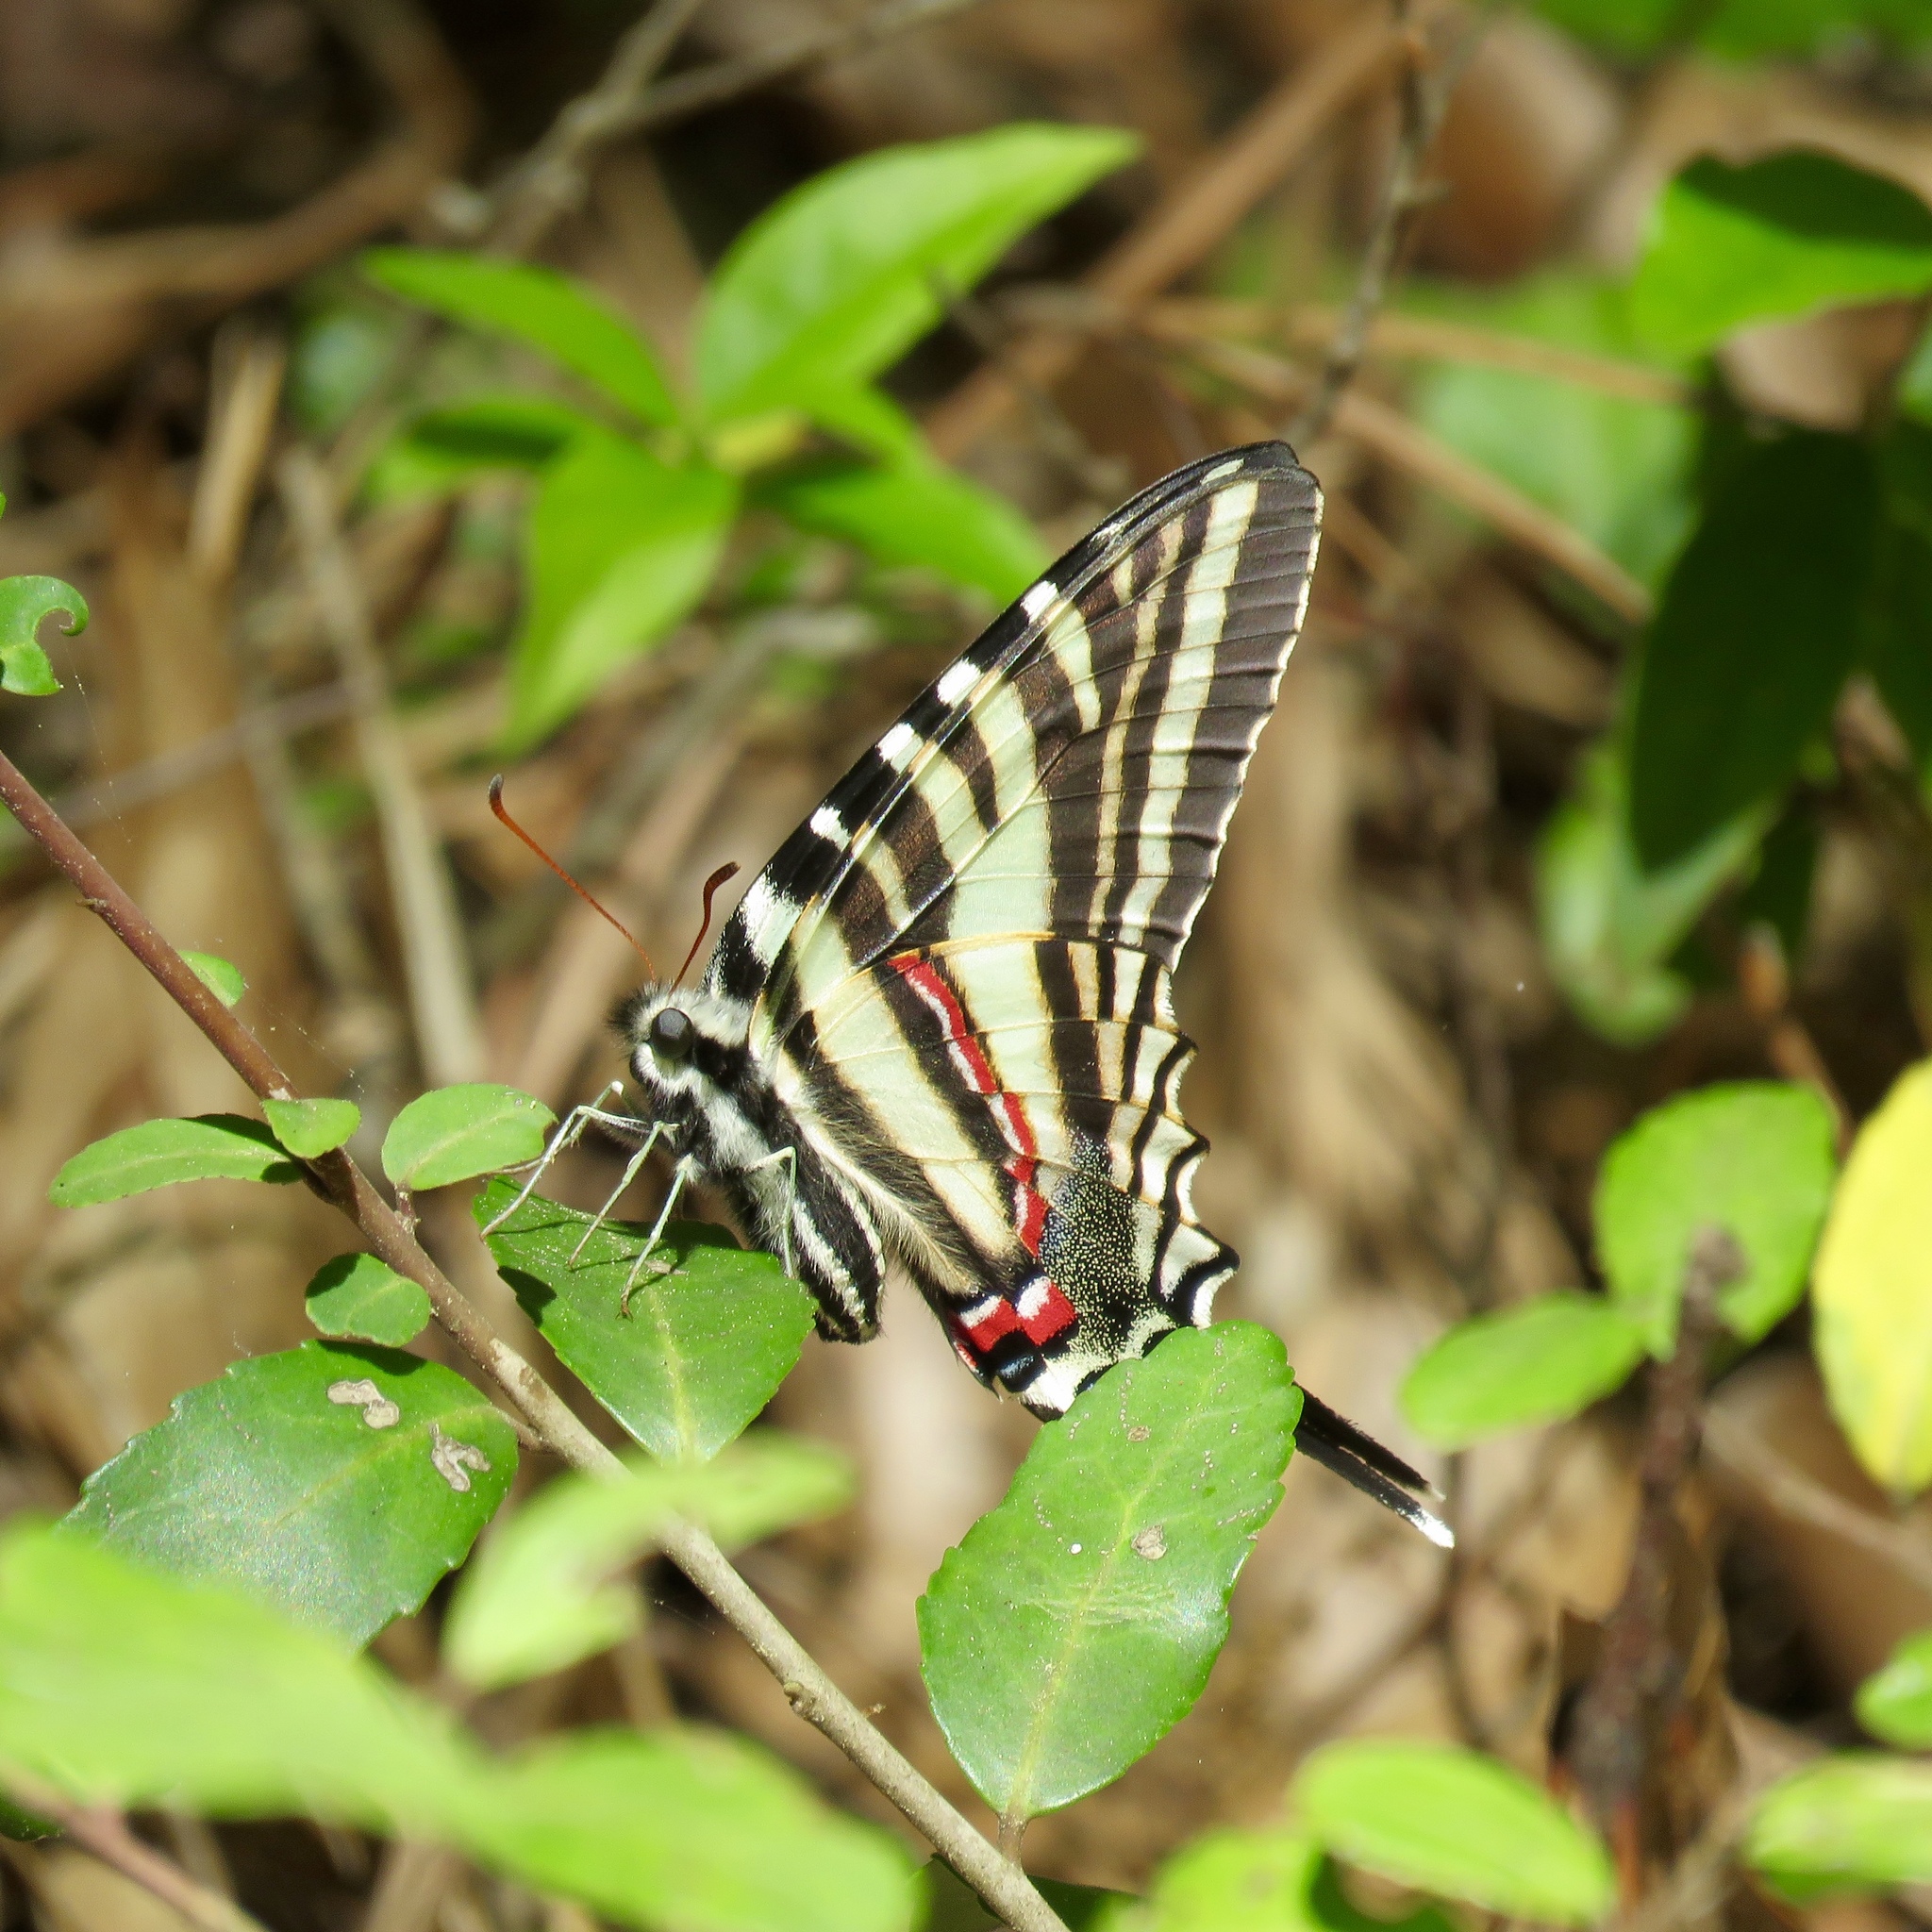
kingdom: Animalia
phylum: Arthropoda
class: Insecta
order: Lepidoptera
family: Papilionidae
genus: Protographium
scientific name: Protographium marcellus
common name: Zebra swallowtail
